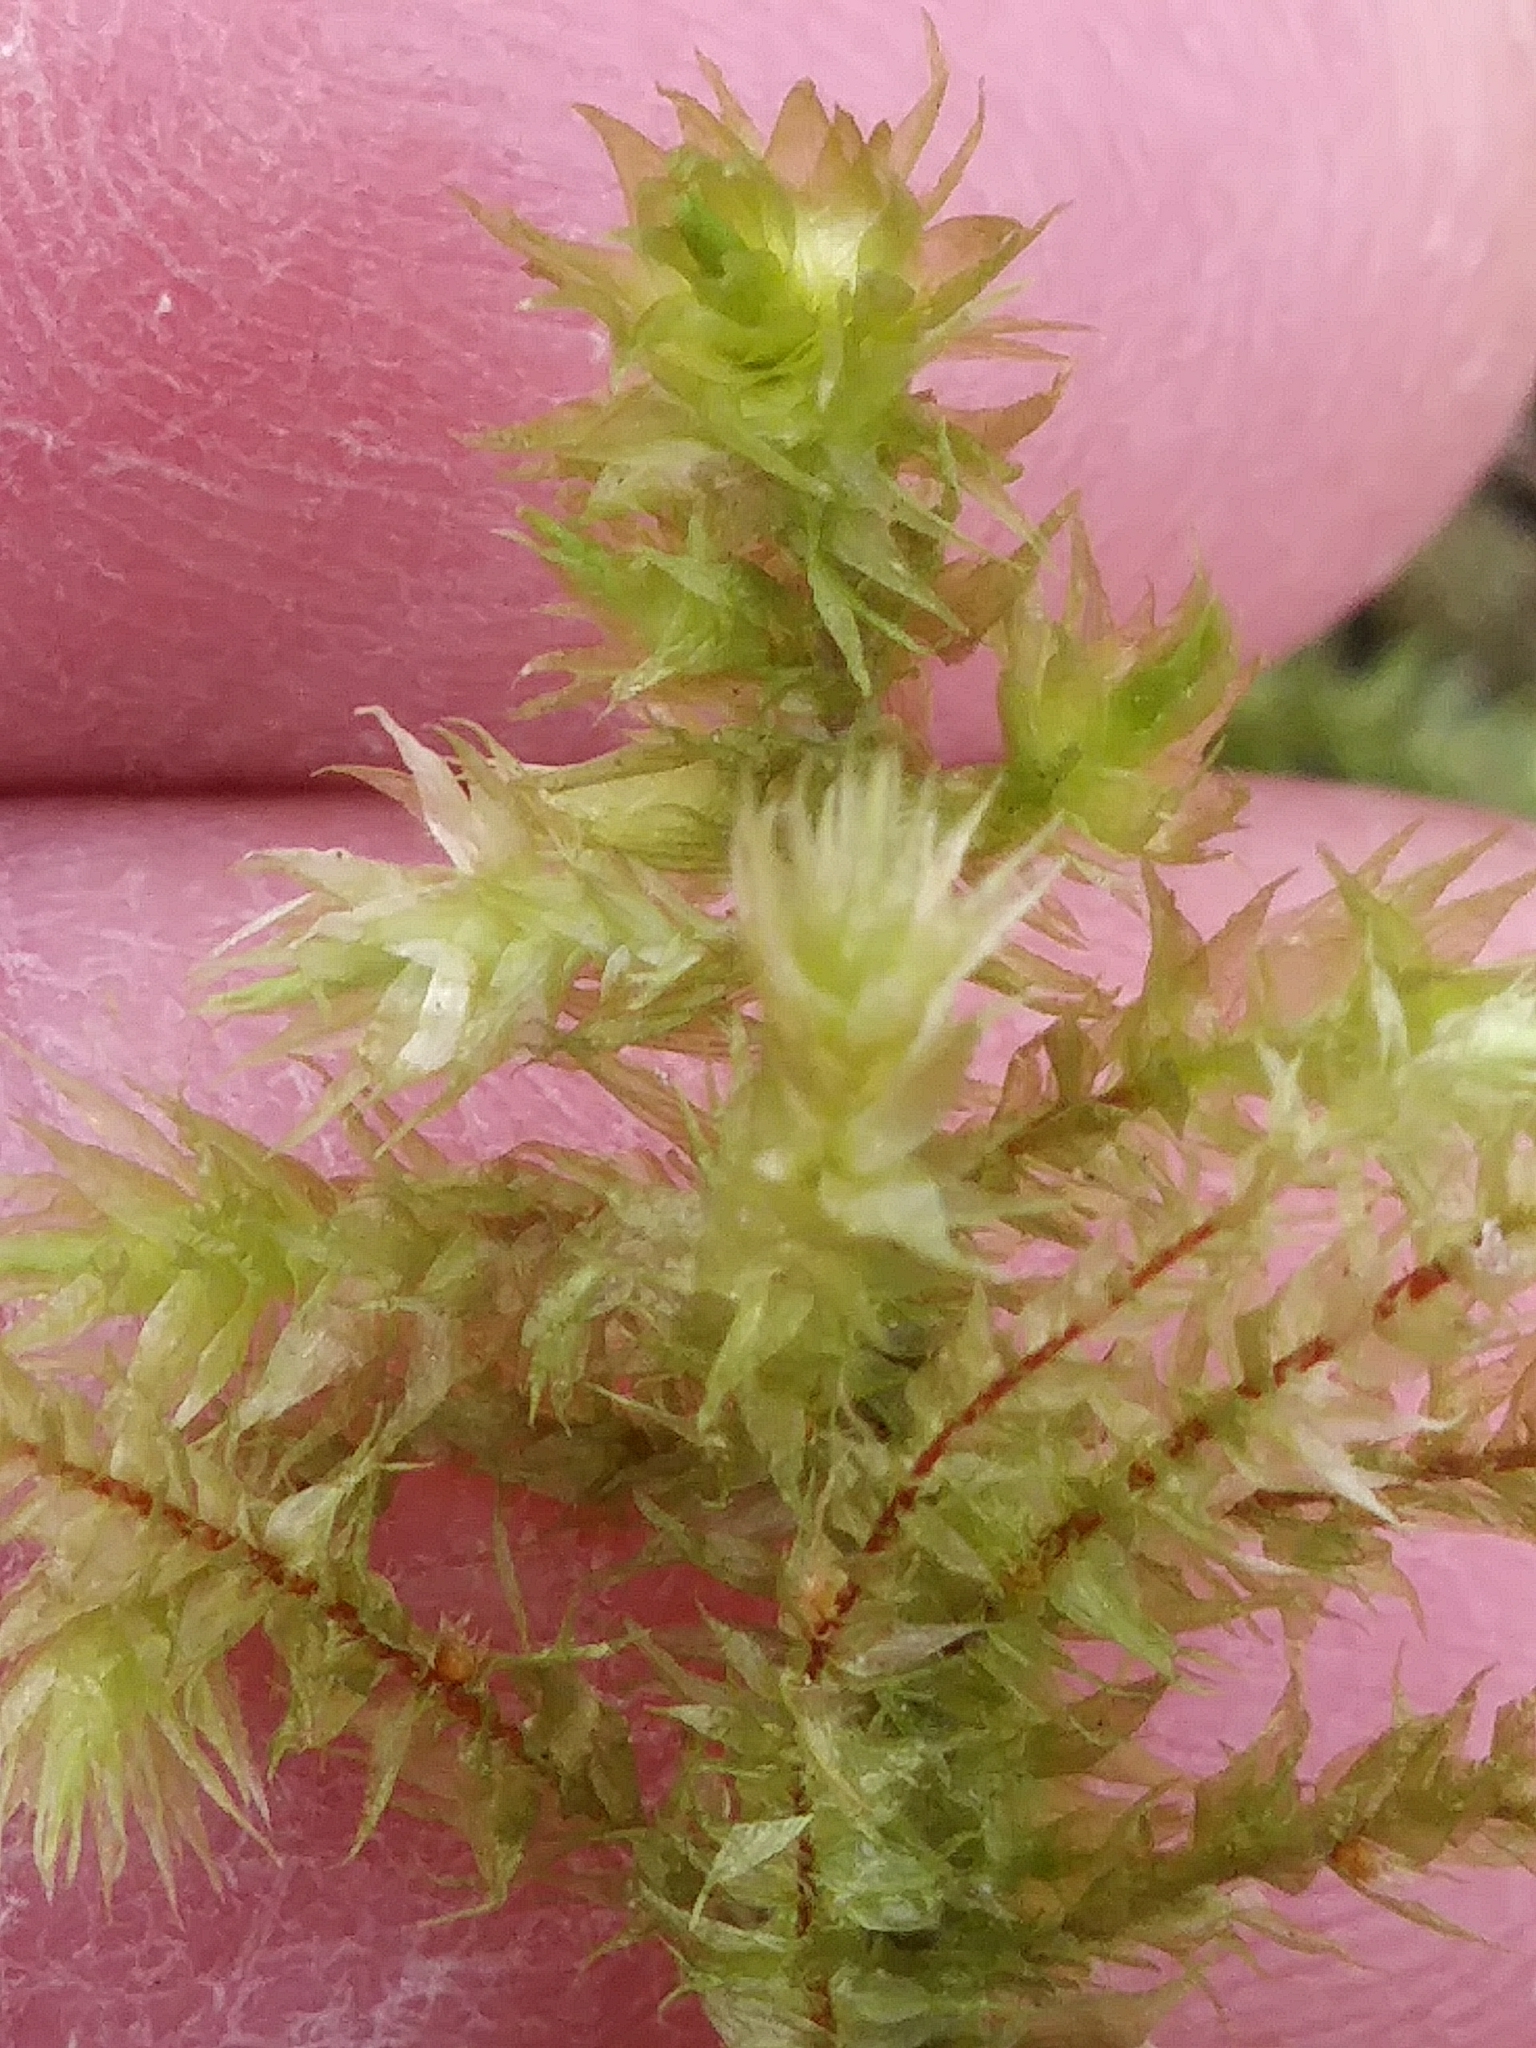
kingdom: Plantae
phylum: Bryophyta
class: Bryopsida
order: Hypnales
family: Hylocomiaceae
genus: Hylocomiadelphus
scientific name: Hylocomiadelphus triquetrus
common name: Rough goose neck moss
